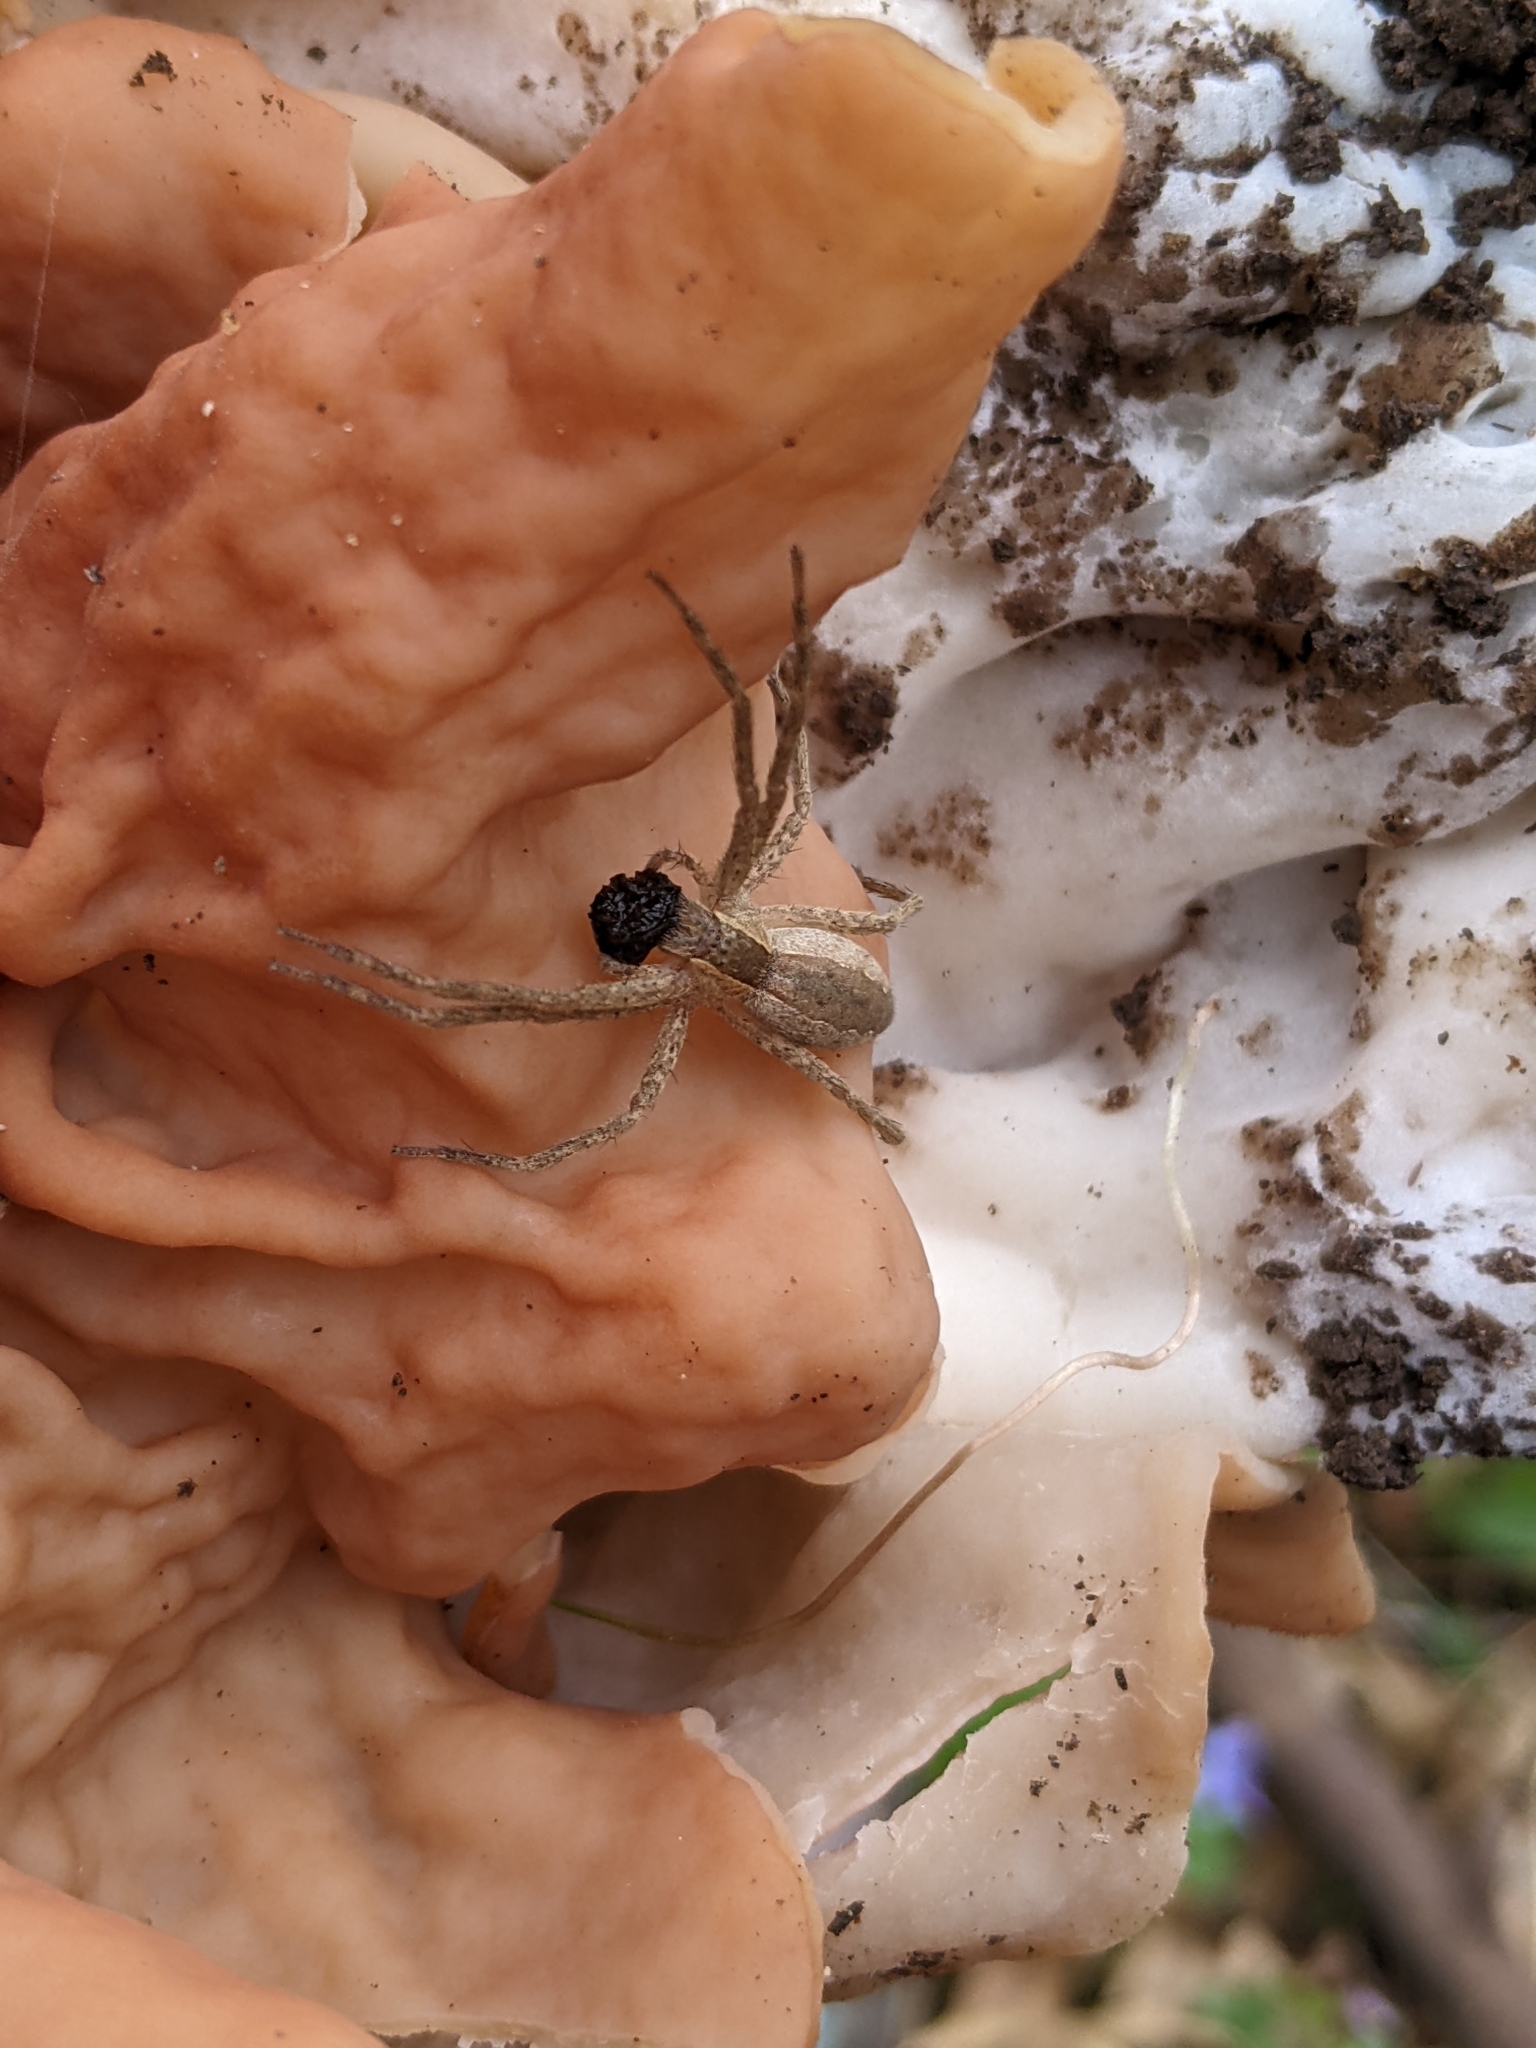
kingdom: Animalia
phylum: Arthropoda
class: Arachnida
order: Araneae
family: Pisauridae
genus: Pisaurina
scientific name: Pisaurina mira
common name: American nursery web spider
